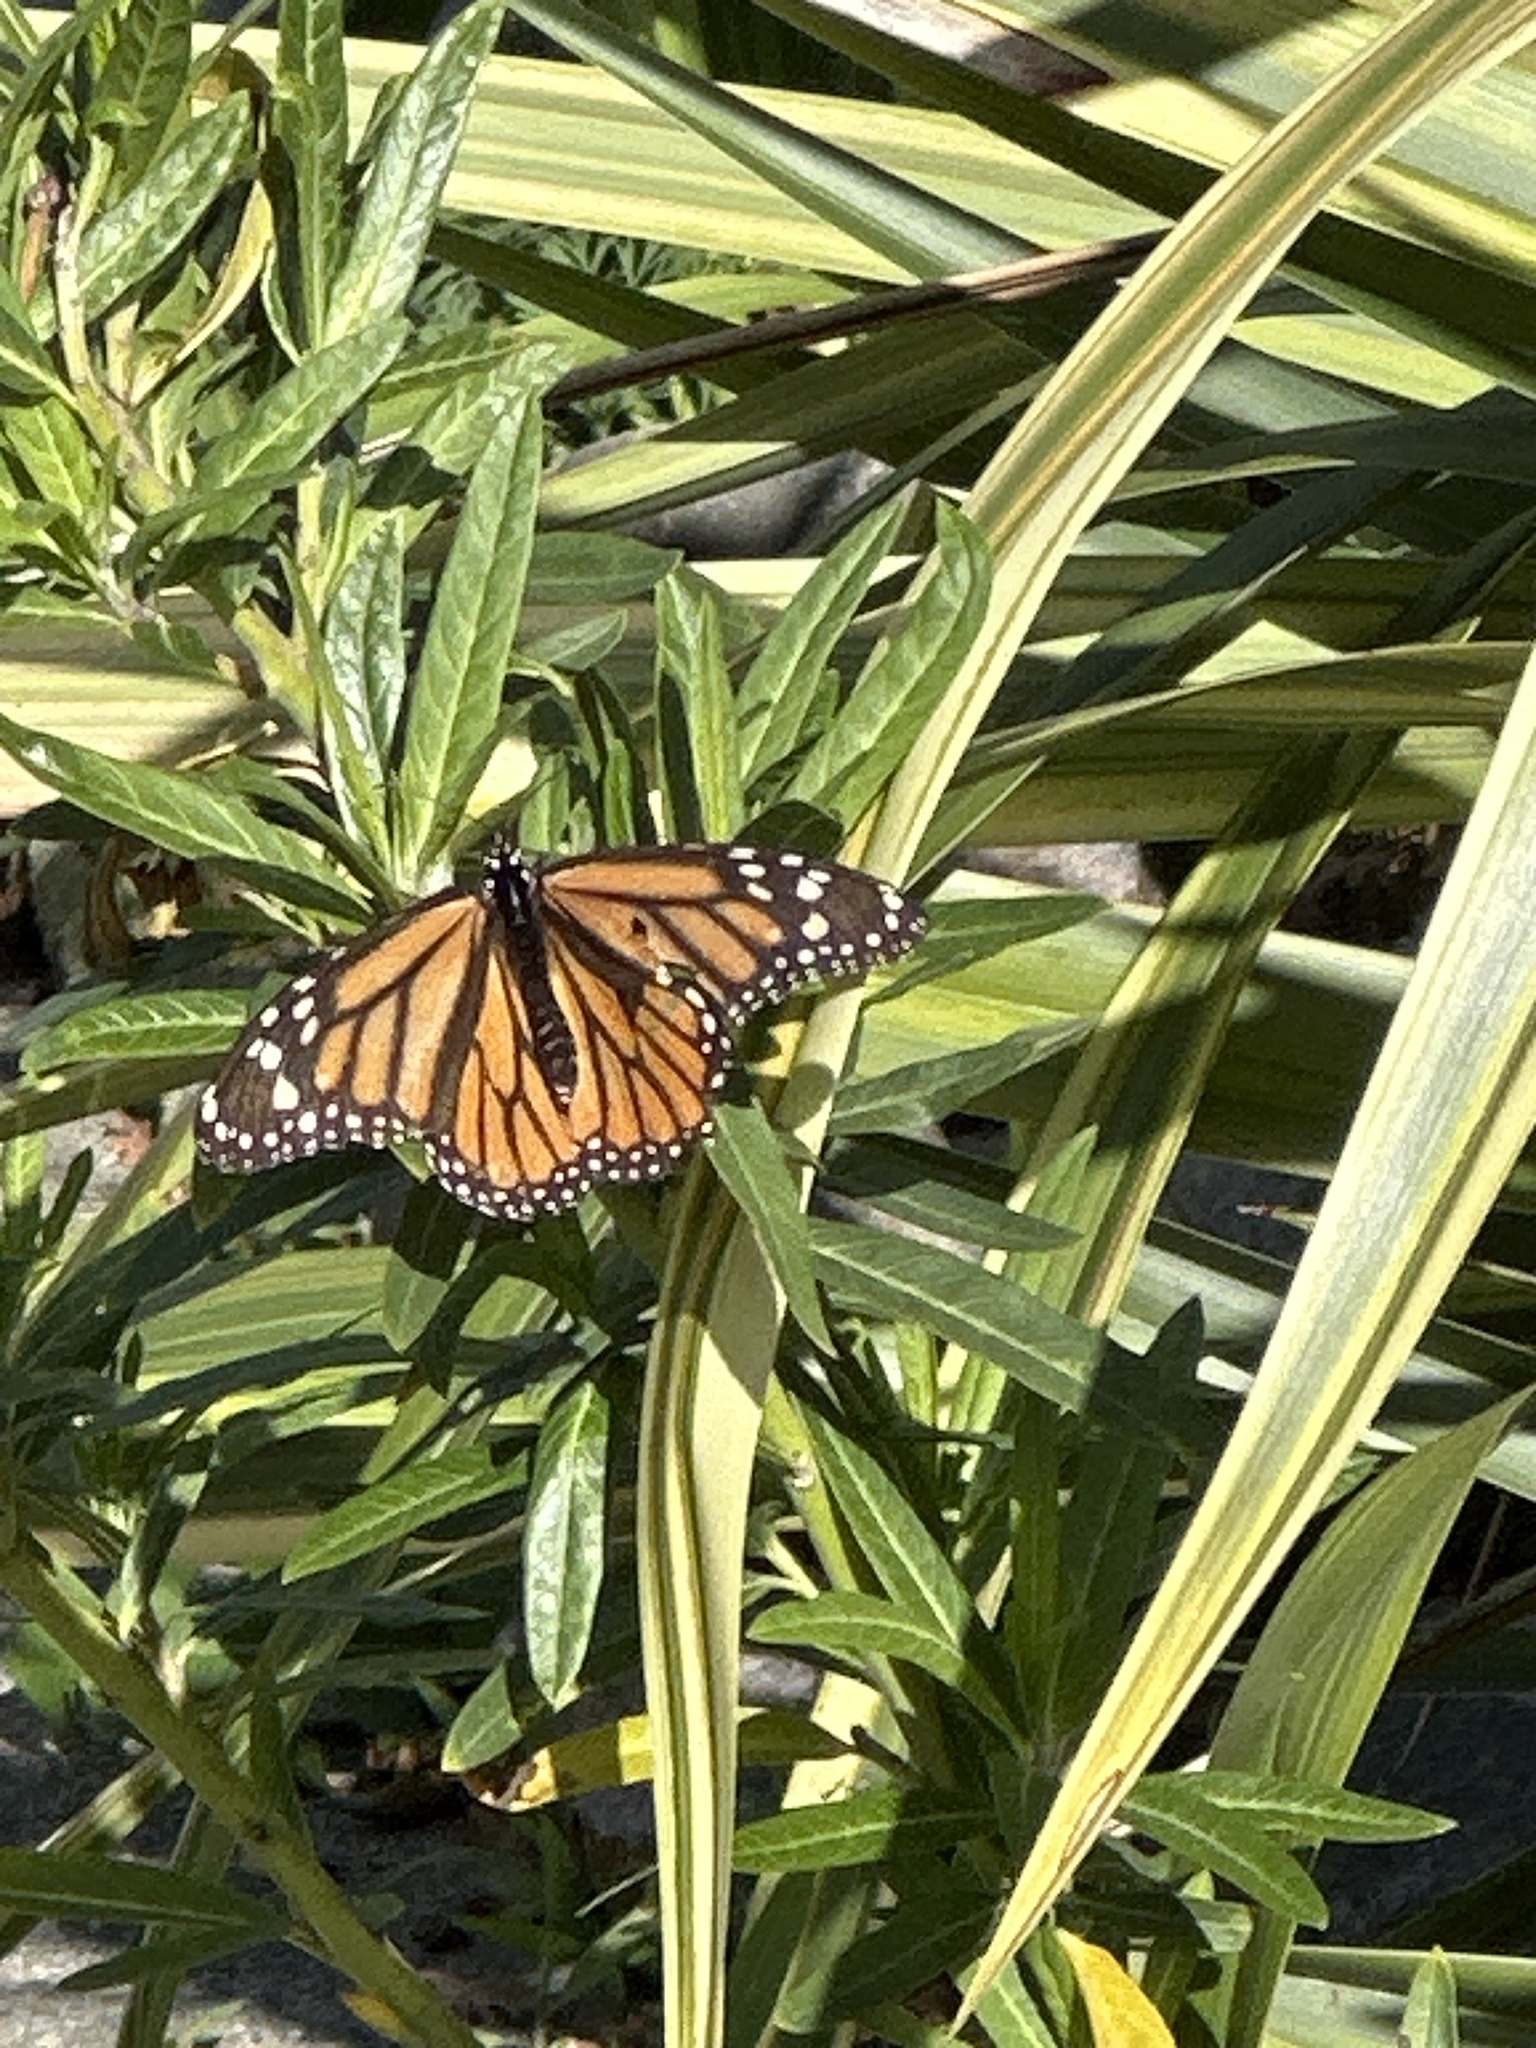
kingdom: Animalia
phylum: Arthropoda
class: Insecta
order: Lepidoptera
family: Nymphalidae
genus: Danaus
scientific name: Danaus plexippus
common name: Monarch
